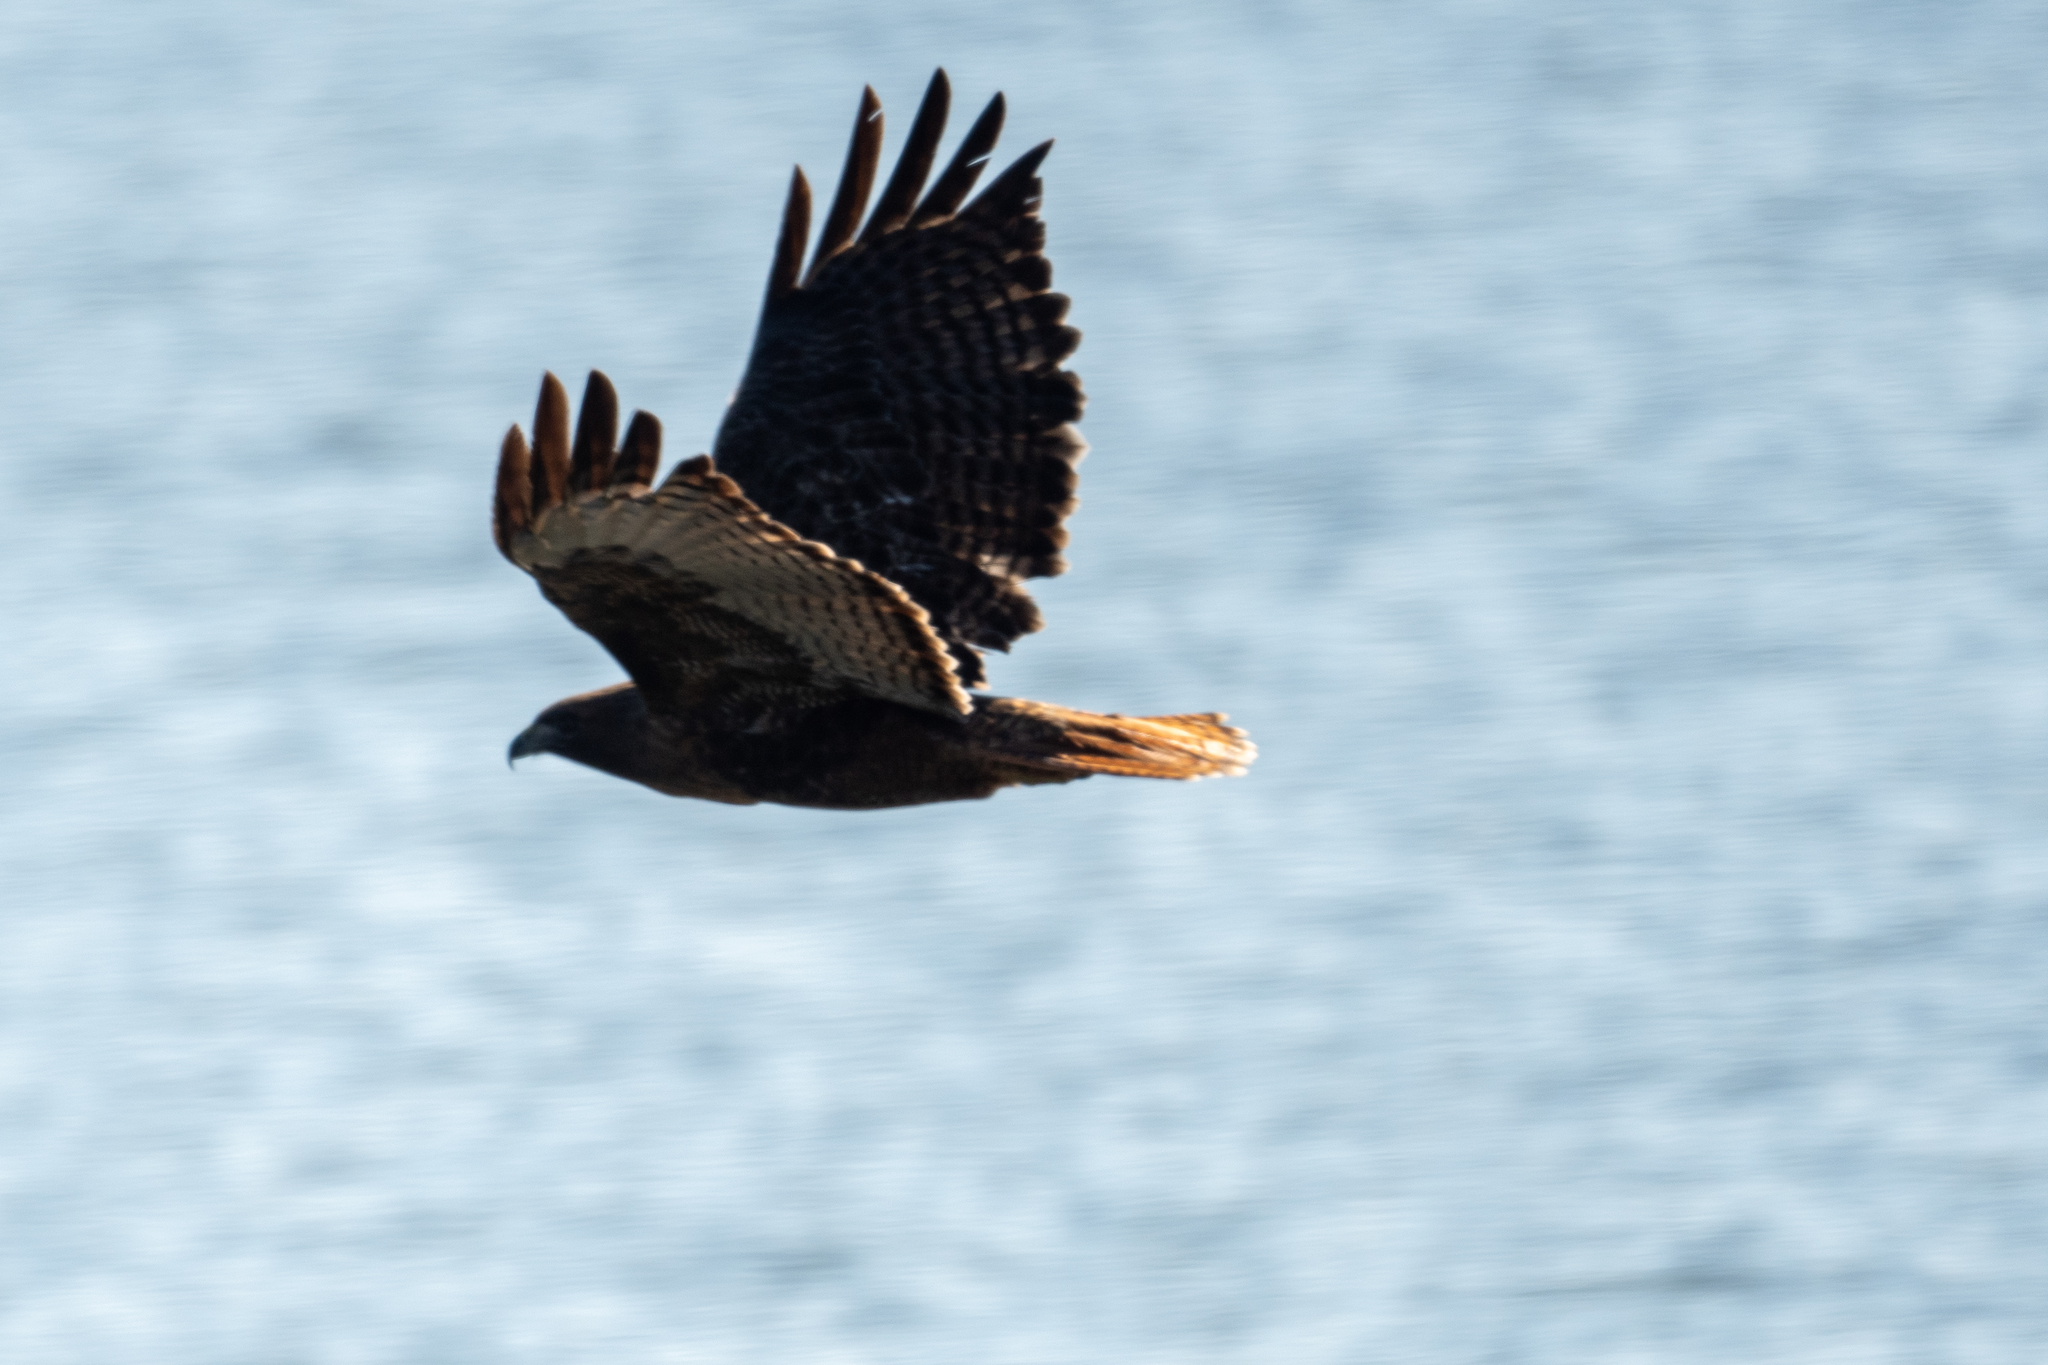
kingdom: Animalia
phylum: Chordata
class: Aves
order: Accipitriformes
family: Accipitridae
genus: Buteo
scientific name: Buteo jamaicensis
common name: Red-tailed hawk
